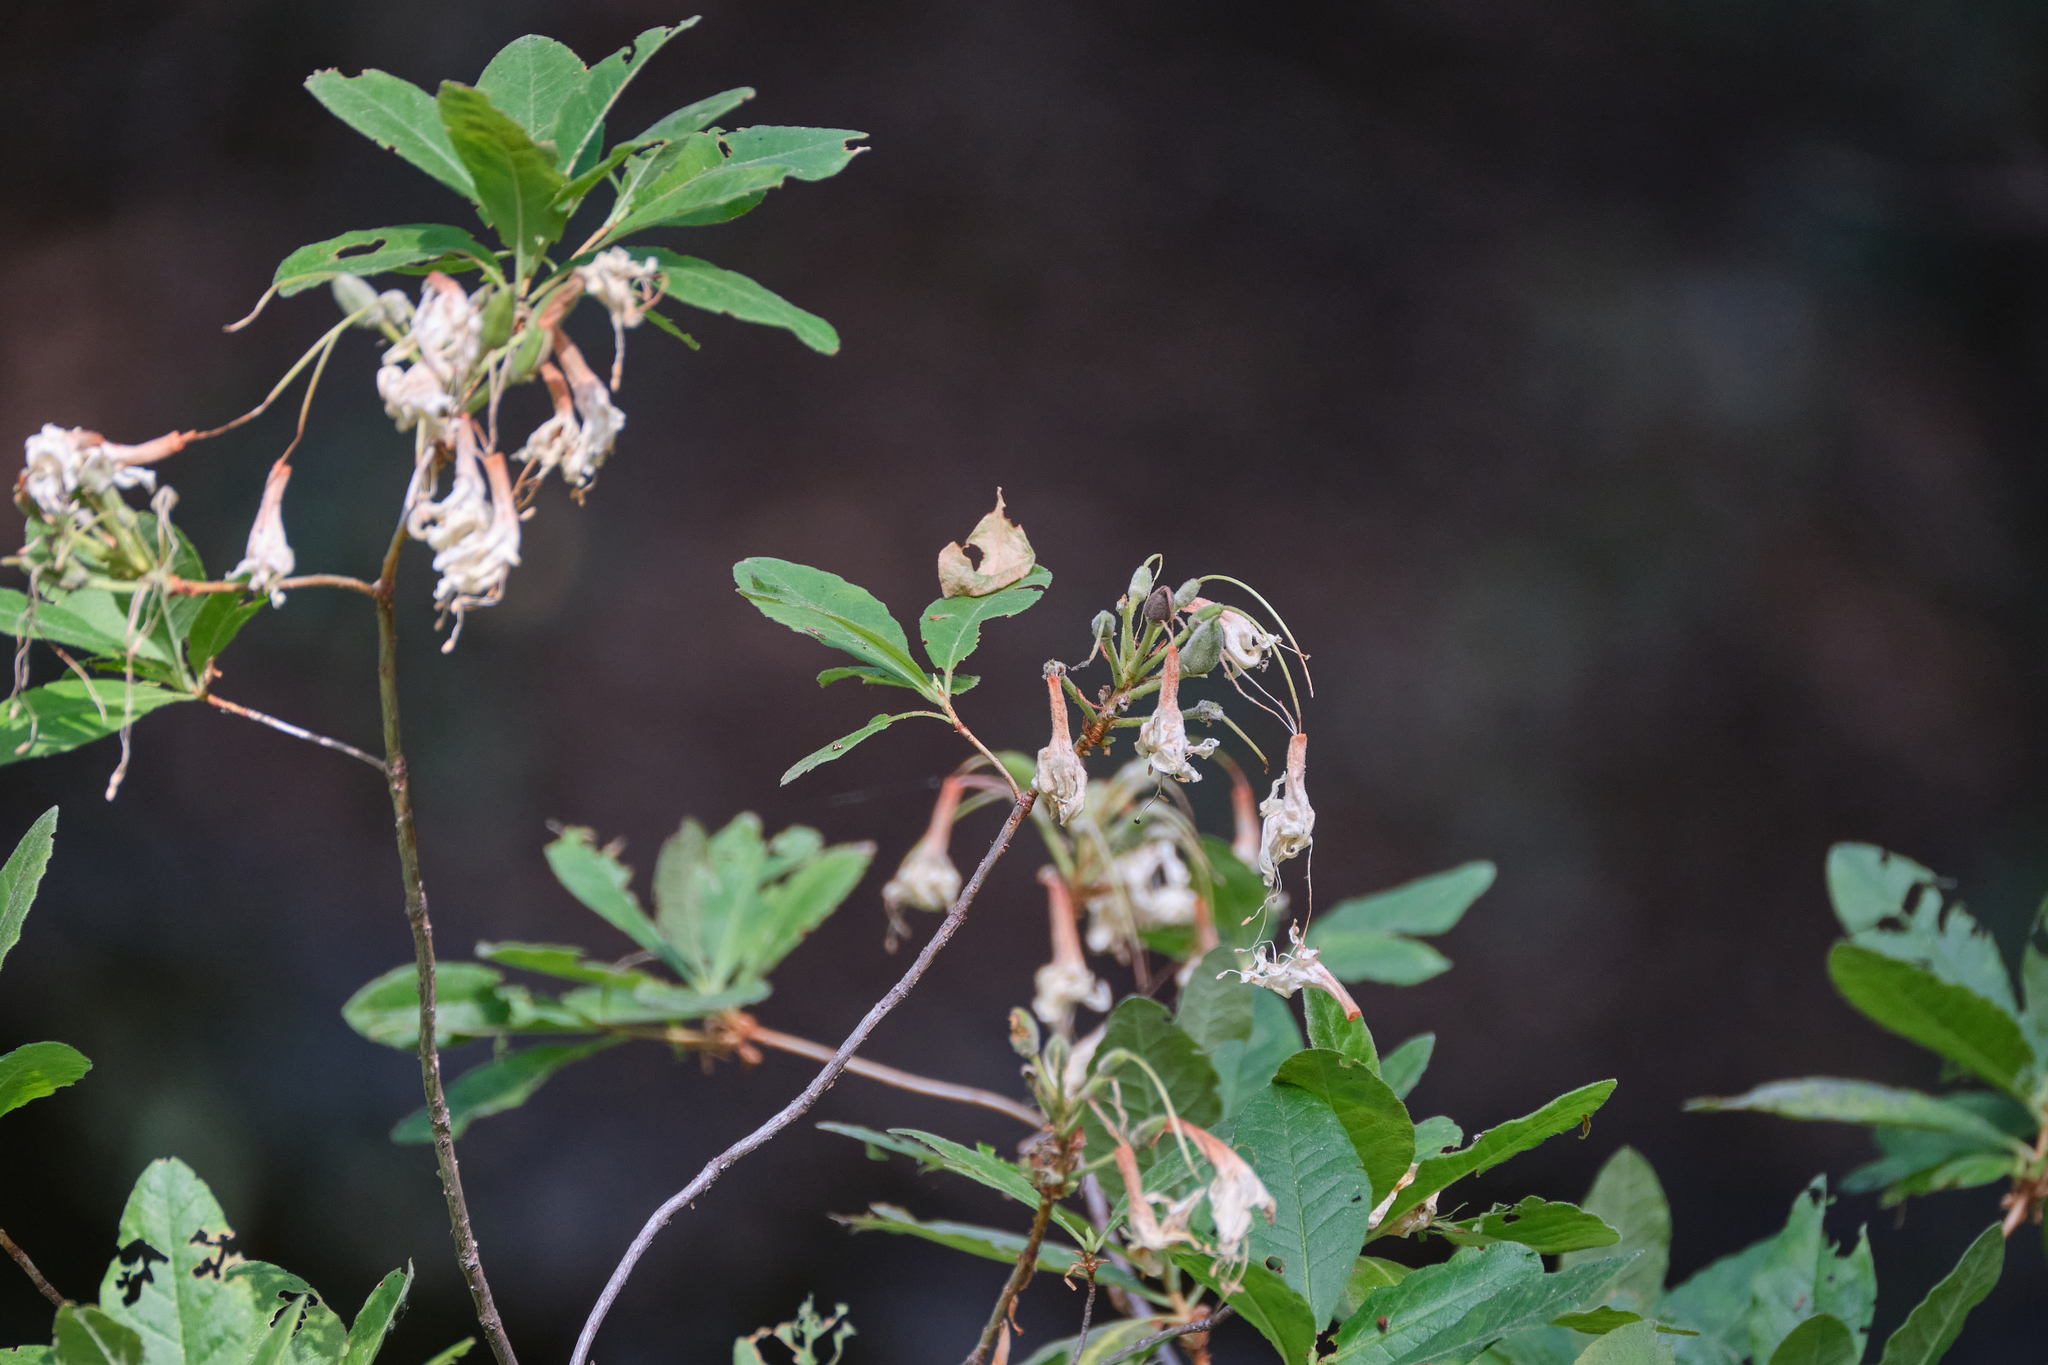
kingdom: Plantae
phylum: Tracheophyta
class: Magnoliopsida
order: Ericales
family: Ericaceae
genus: Rhododendron
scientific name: Rhododendron occidentale
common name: Western azalea
